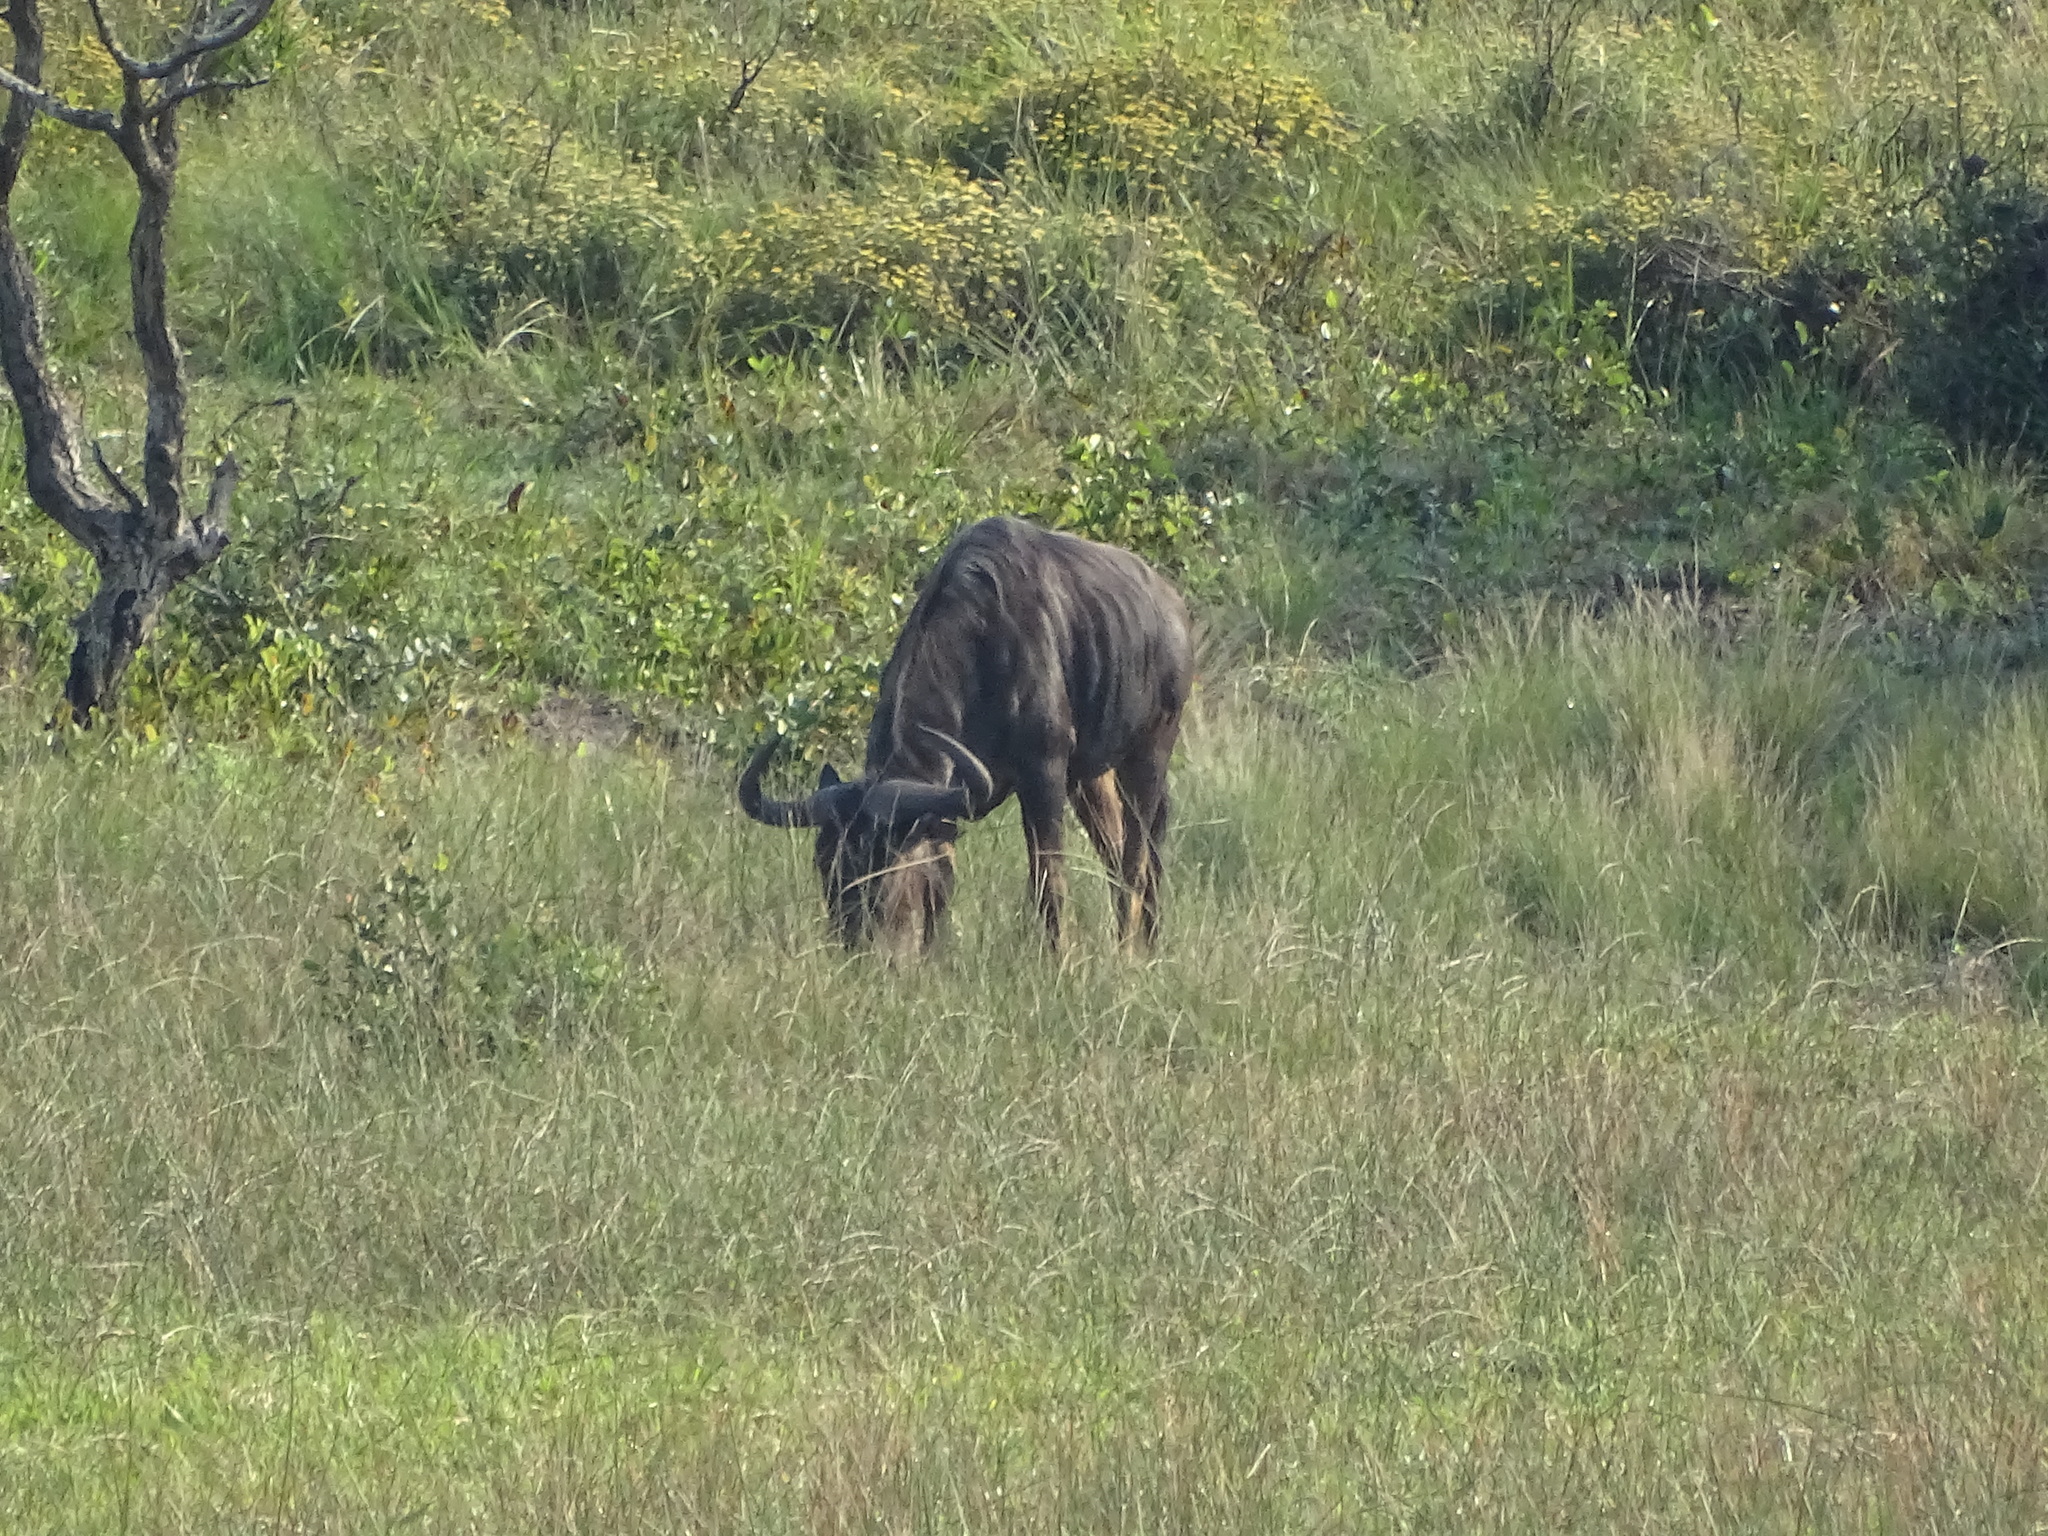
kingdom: Animalia
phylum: Chordata
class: Mammalia
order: Artiodactyla
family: Bovidae
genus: Connochaetes
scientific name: Connochaetes taurinus
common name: Blue wildebeest
